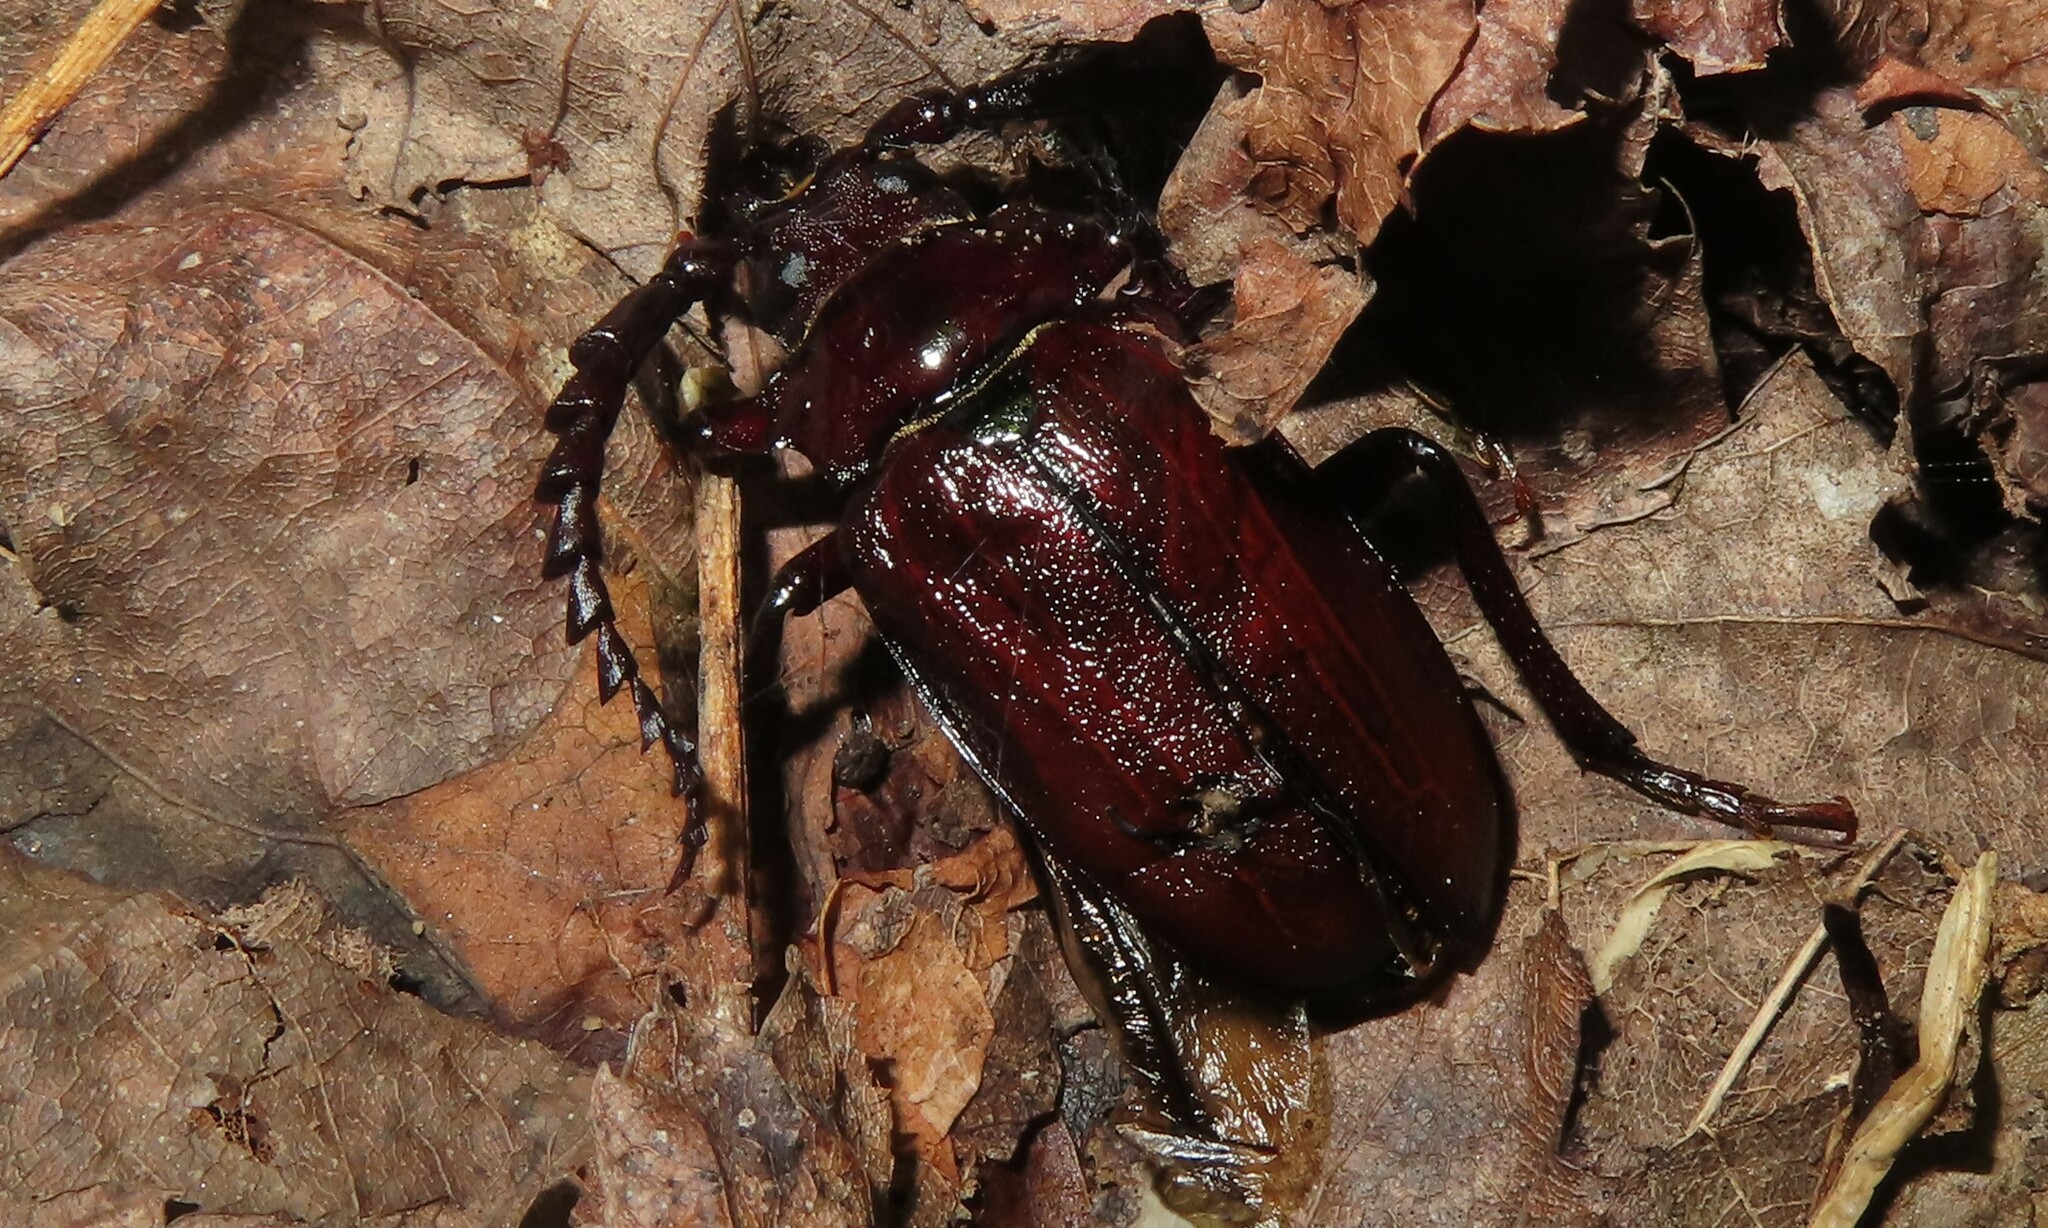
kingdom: Animalia
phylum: Arthropoda
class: Insecta
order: Coleoptera
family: Cerambycidae
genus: Prionus
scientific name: Prionus laticollis
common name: Broad necked prionus
